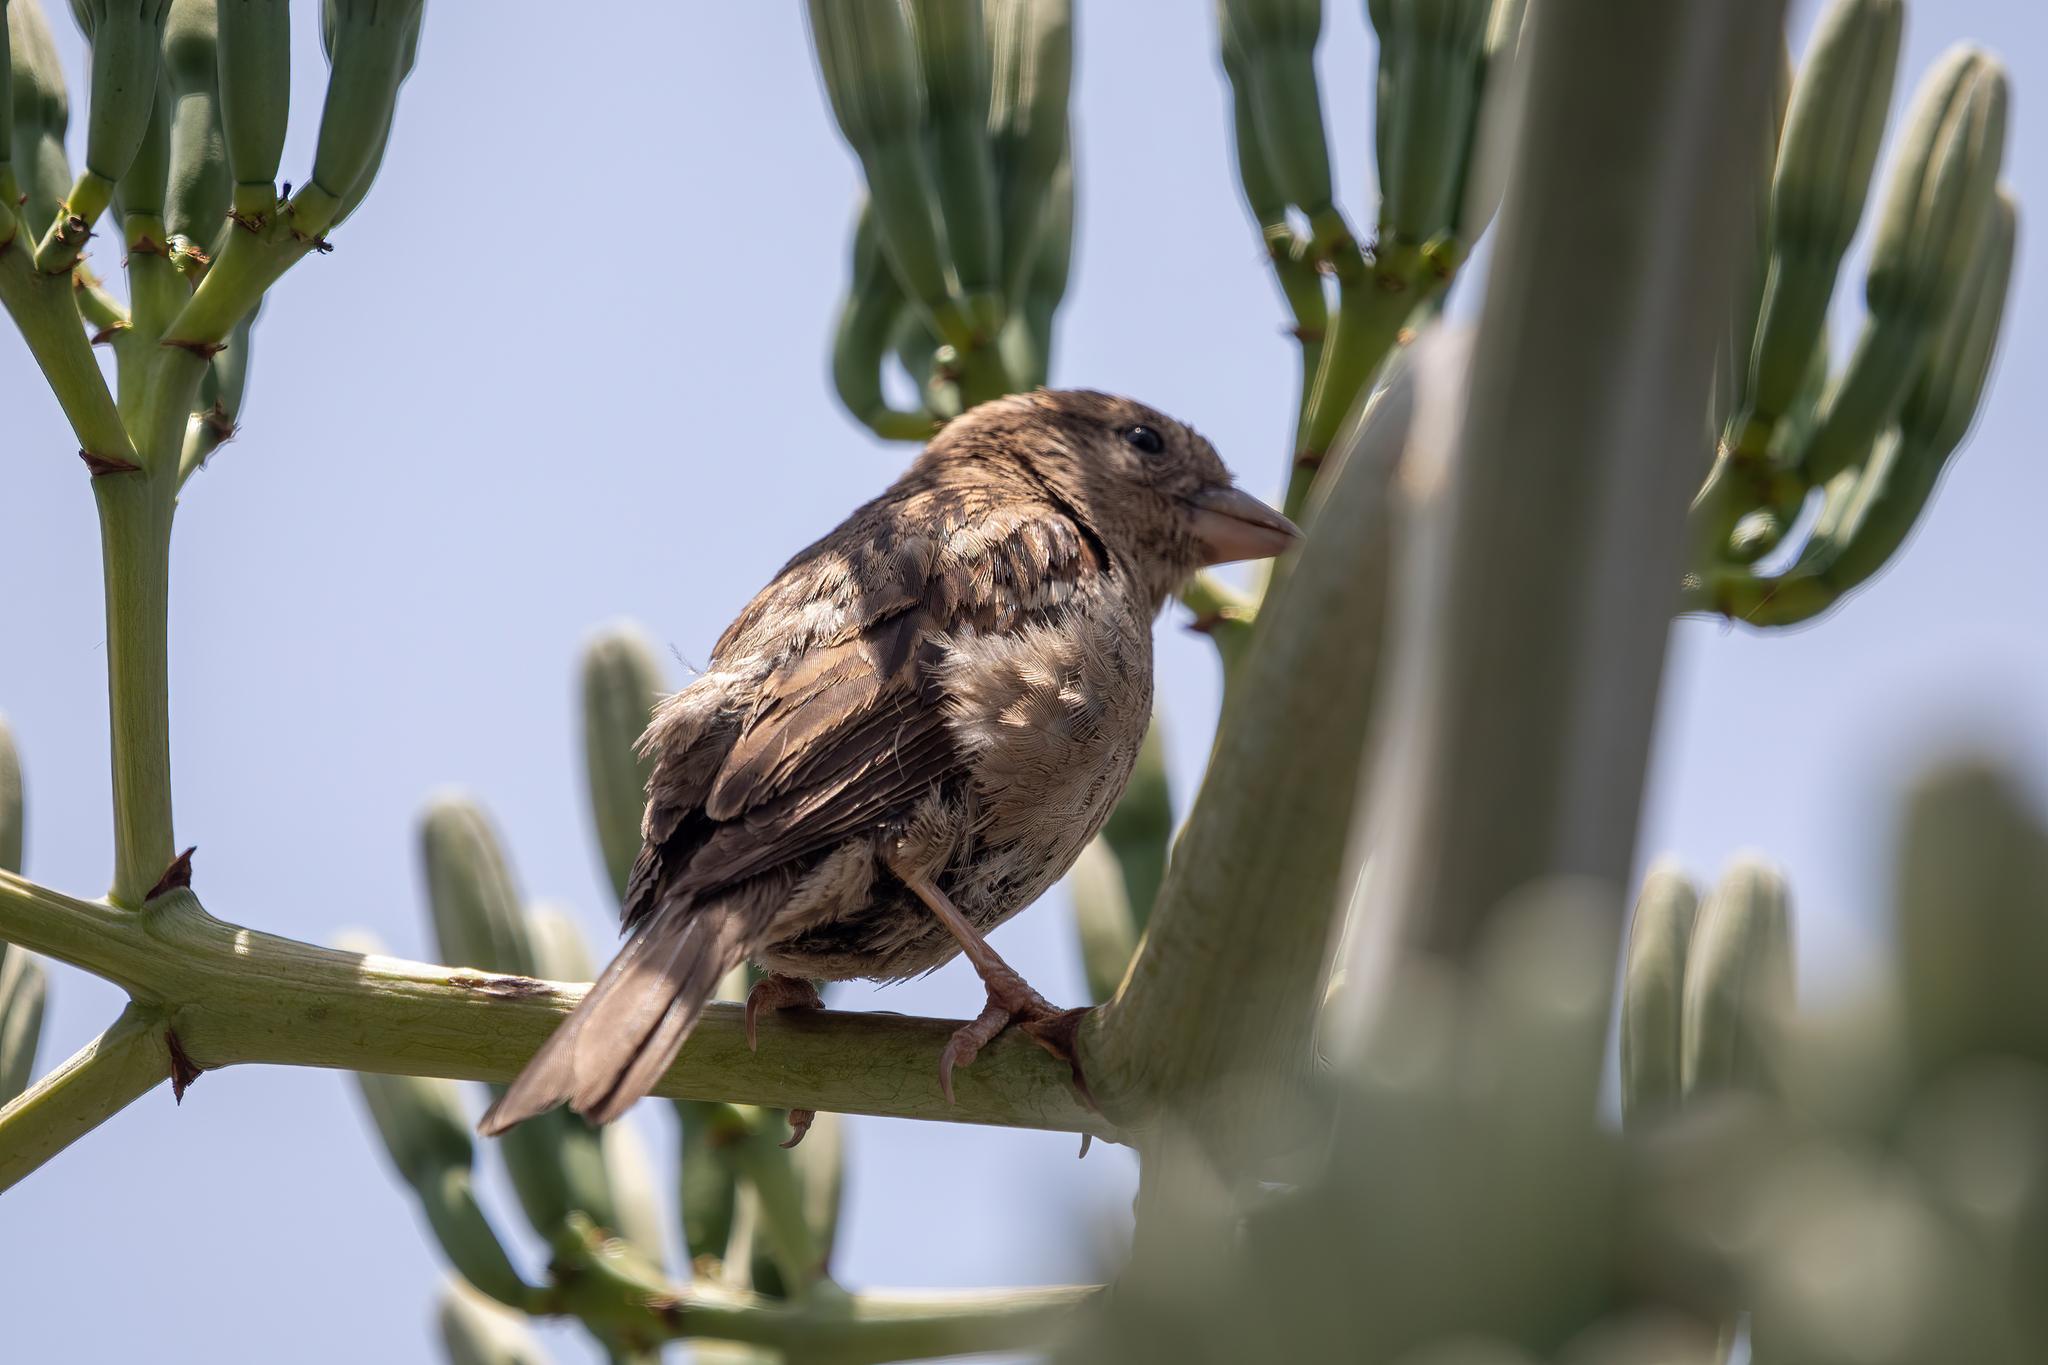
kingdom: Animalia
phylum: Chordata
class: Aves
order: Passeriformes
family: Passeridae
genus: Passer
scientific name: Passer domesticus
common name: House sparrow
